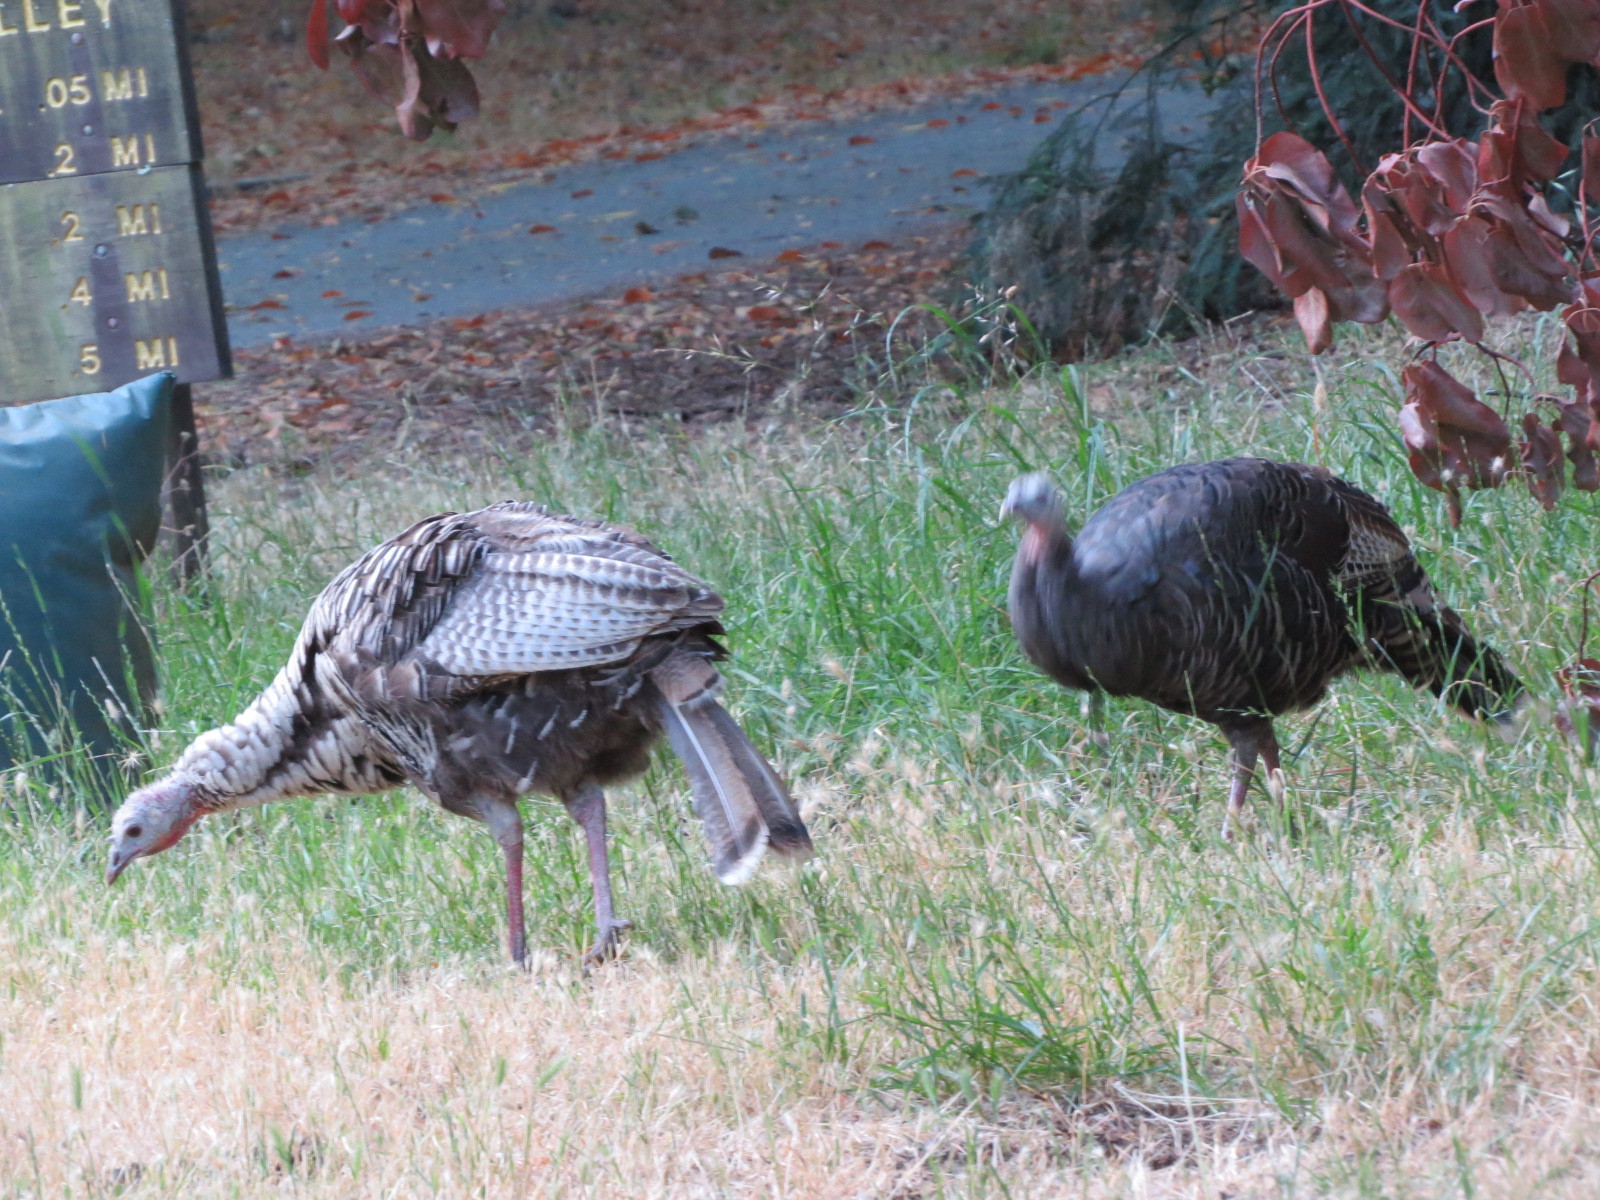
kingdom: Animalia
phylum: Chordata
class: Aves
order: Galliformes
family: Phasianidae
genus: Meleagris
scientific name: Meleagris gallopavo
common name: Wild turkey
